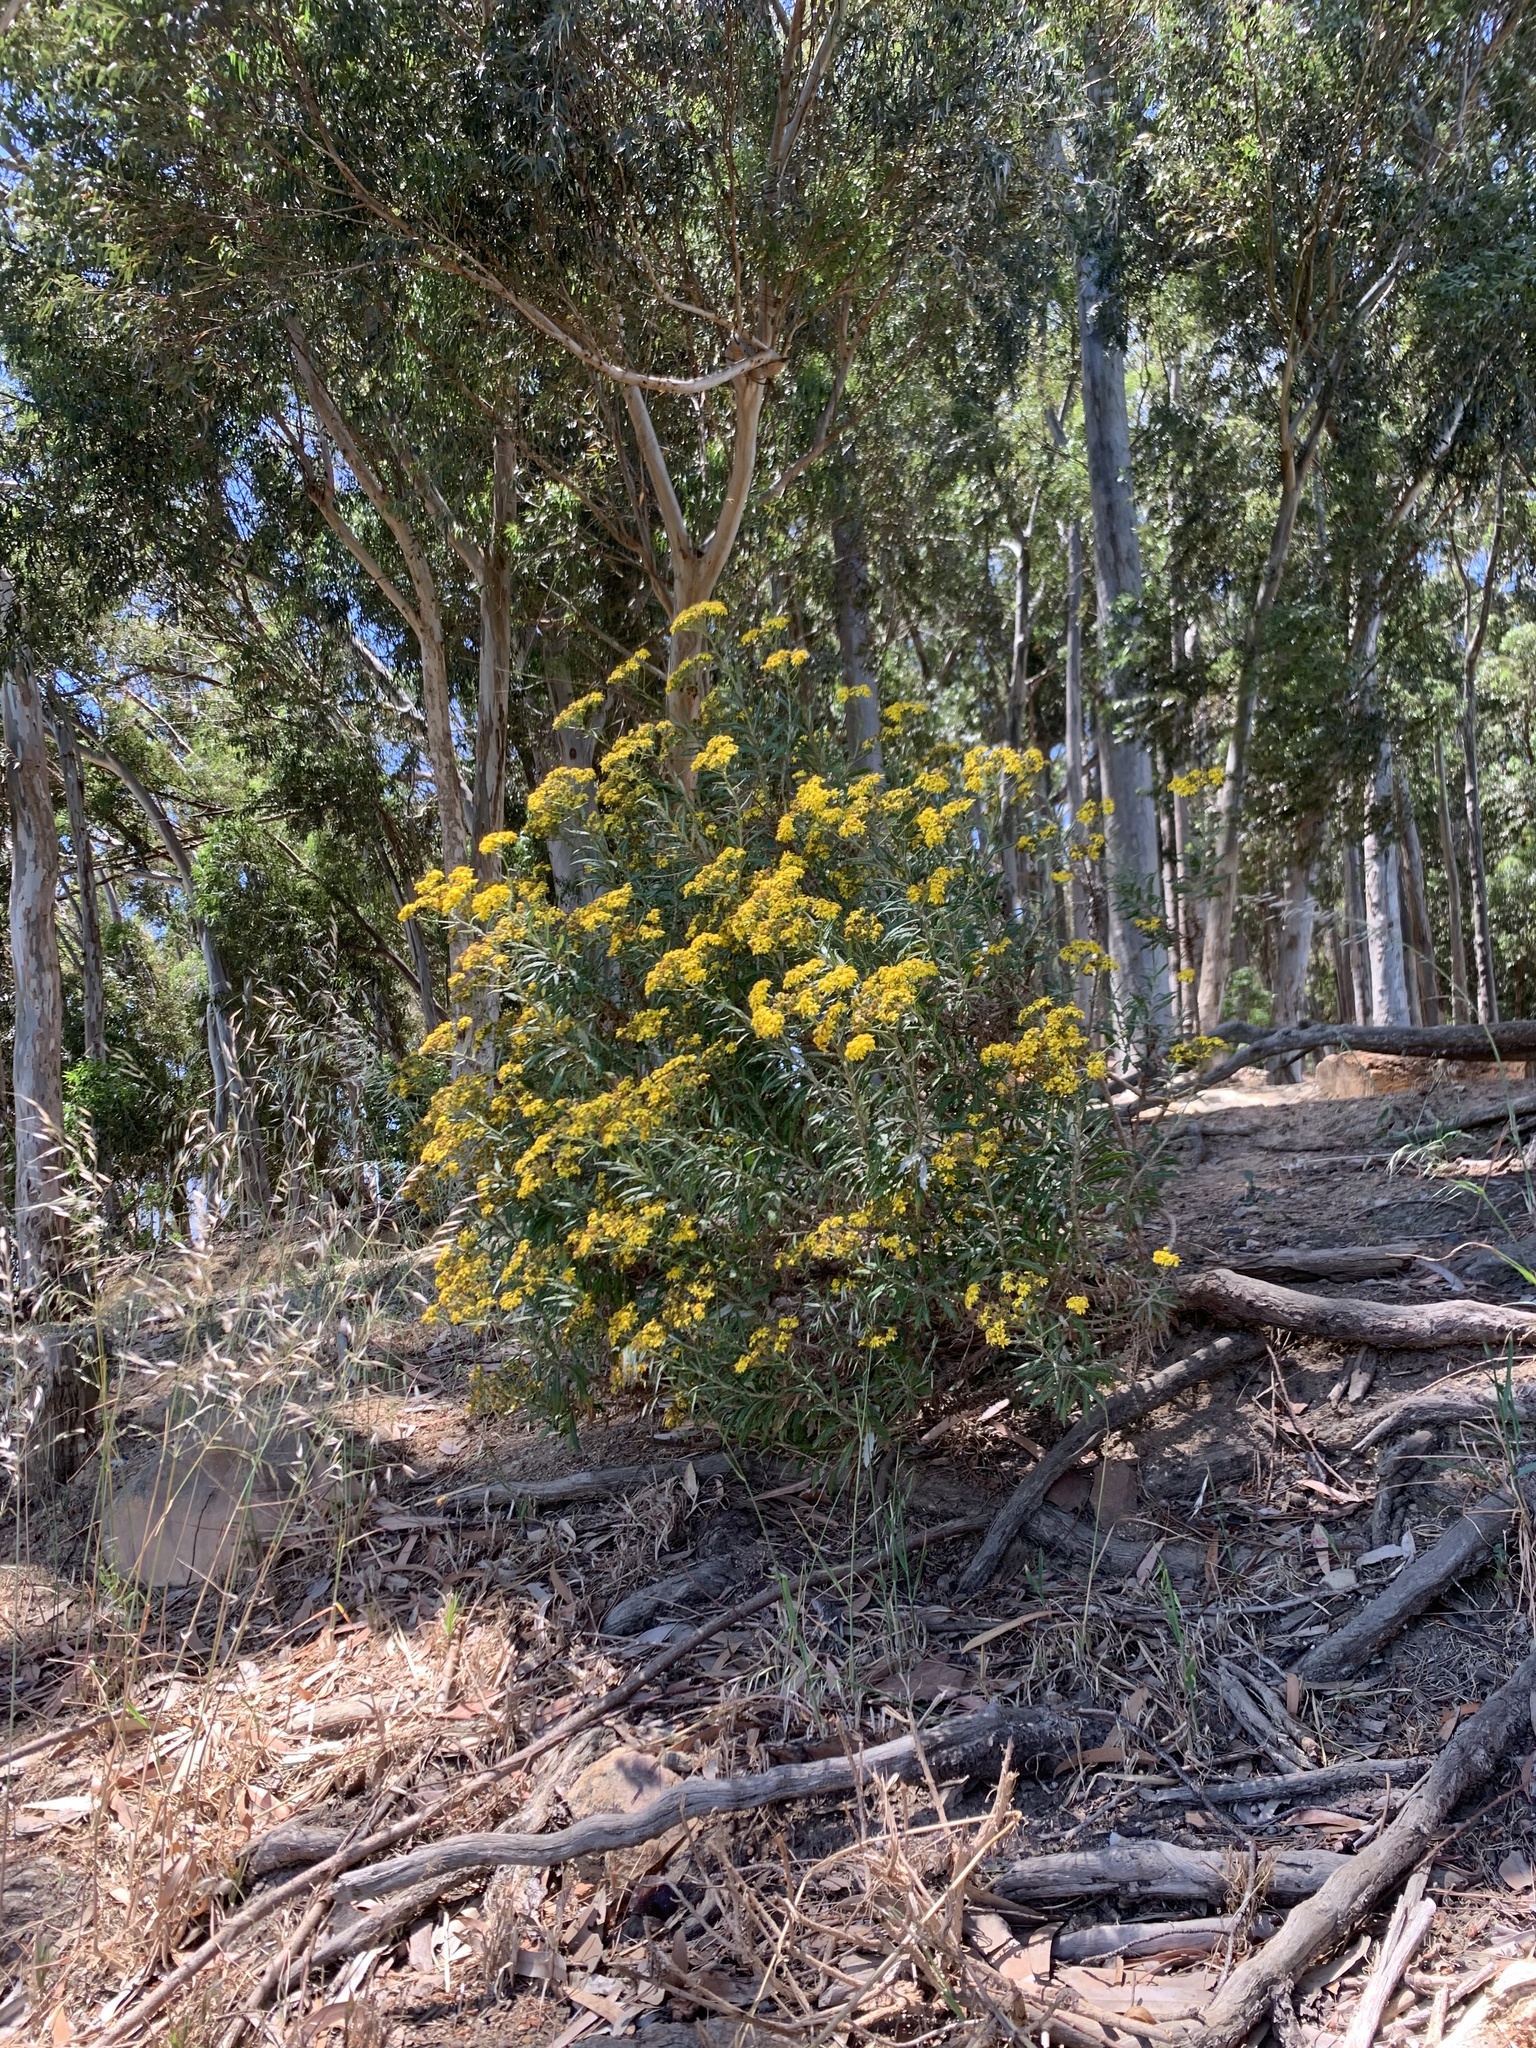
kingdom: Plantae
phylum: Tracheophyta
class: Magnoliopsida
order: Asterales
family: Asteraceae
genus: Senecio
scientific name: Senecio pterophorus
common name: Shoddy ragwort
